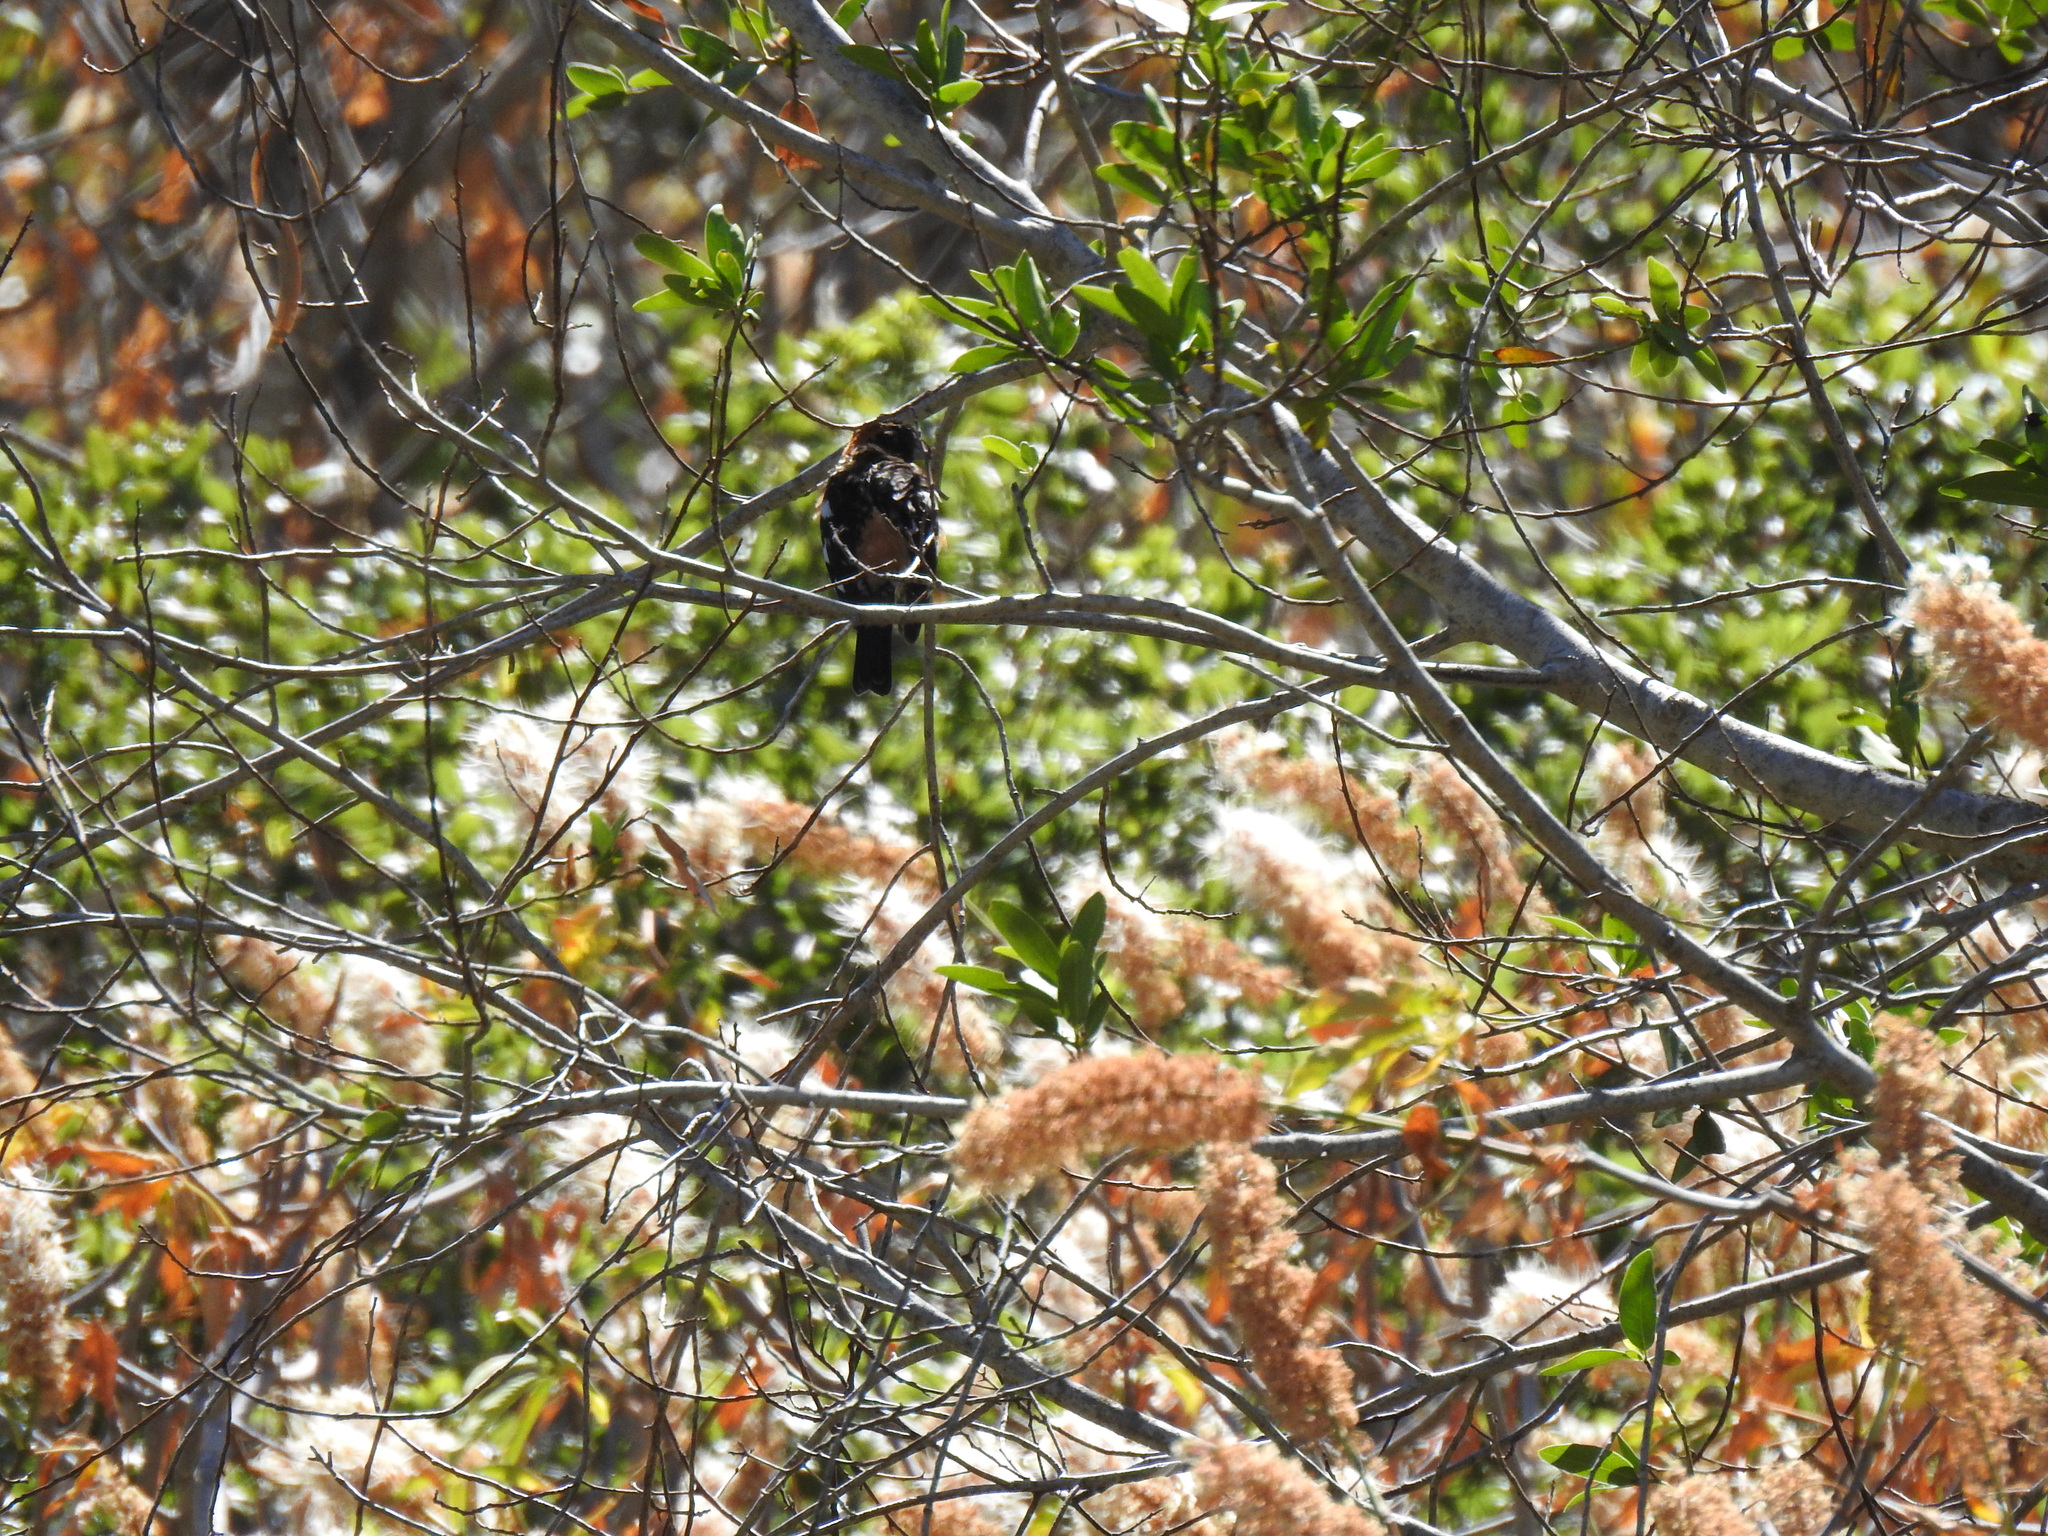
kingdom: Animalia
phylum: Chordata
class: Aves
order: Passeriformes
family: Cardinalidae
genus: Pheucticus
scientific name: Pheucticus melanocephalus
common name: Black-headed grosbeak
